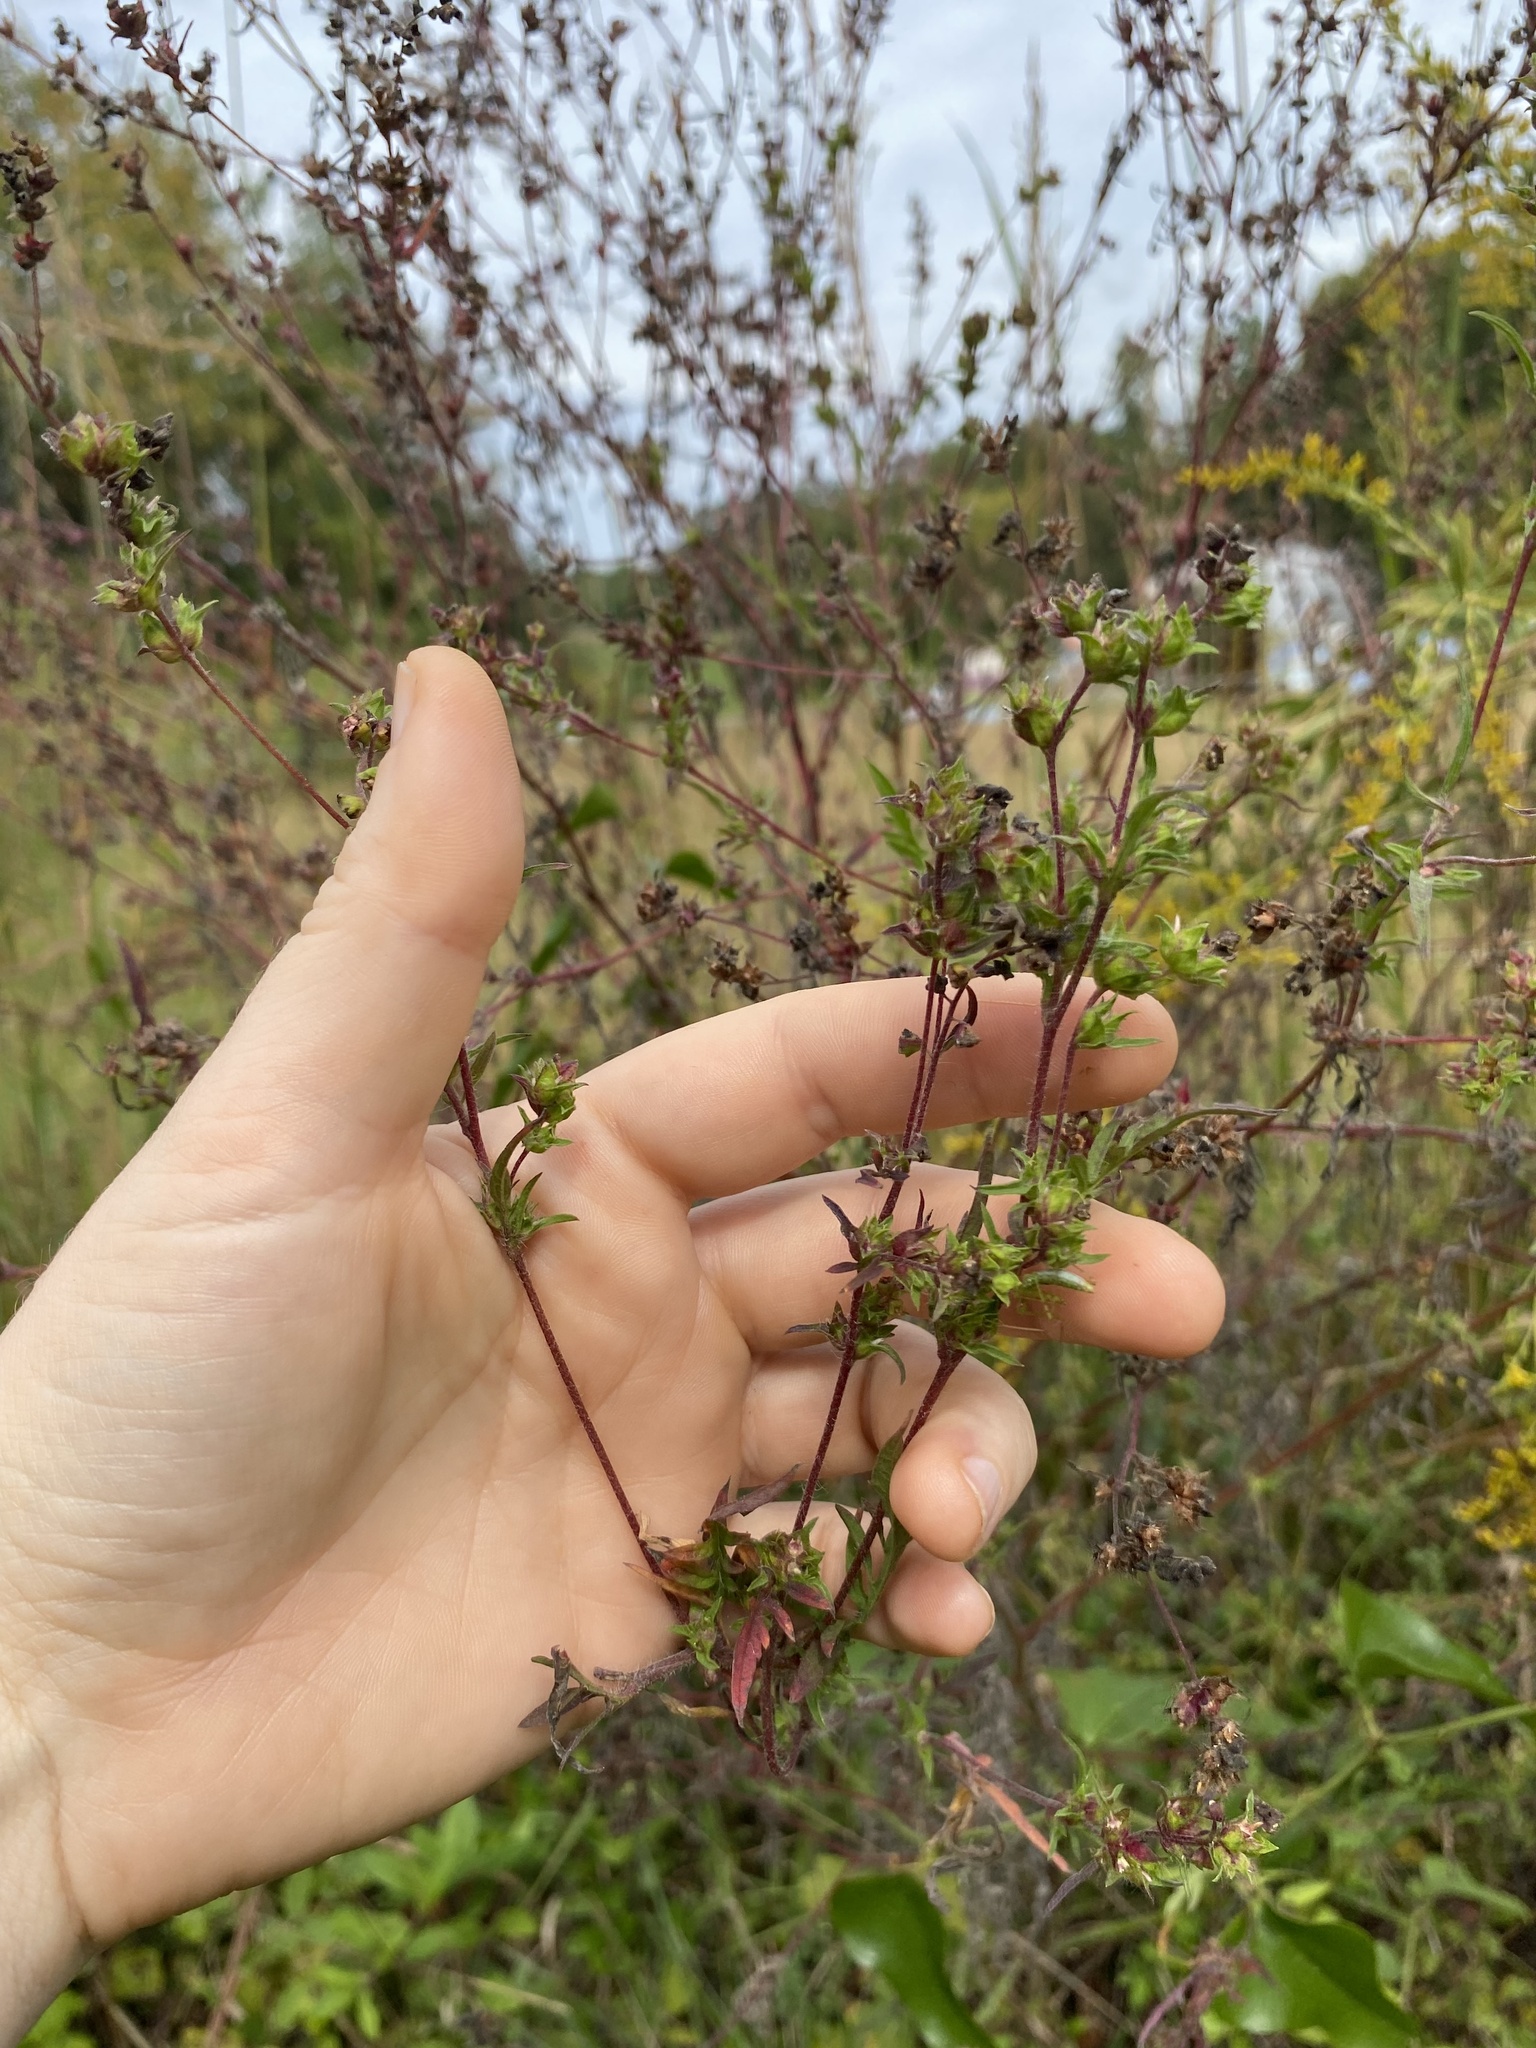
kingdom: Plantae
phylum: Tracheophyta
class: Magnoliopsida
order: Asterales
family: Asteraceae
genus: Ambrosia
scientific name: Ambrosia artemisiifolia
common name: Annual ragweed
